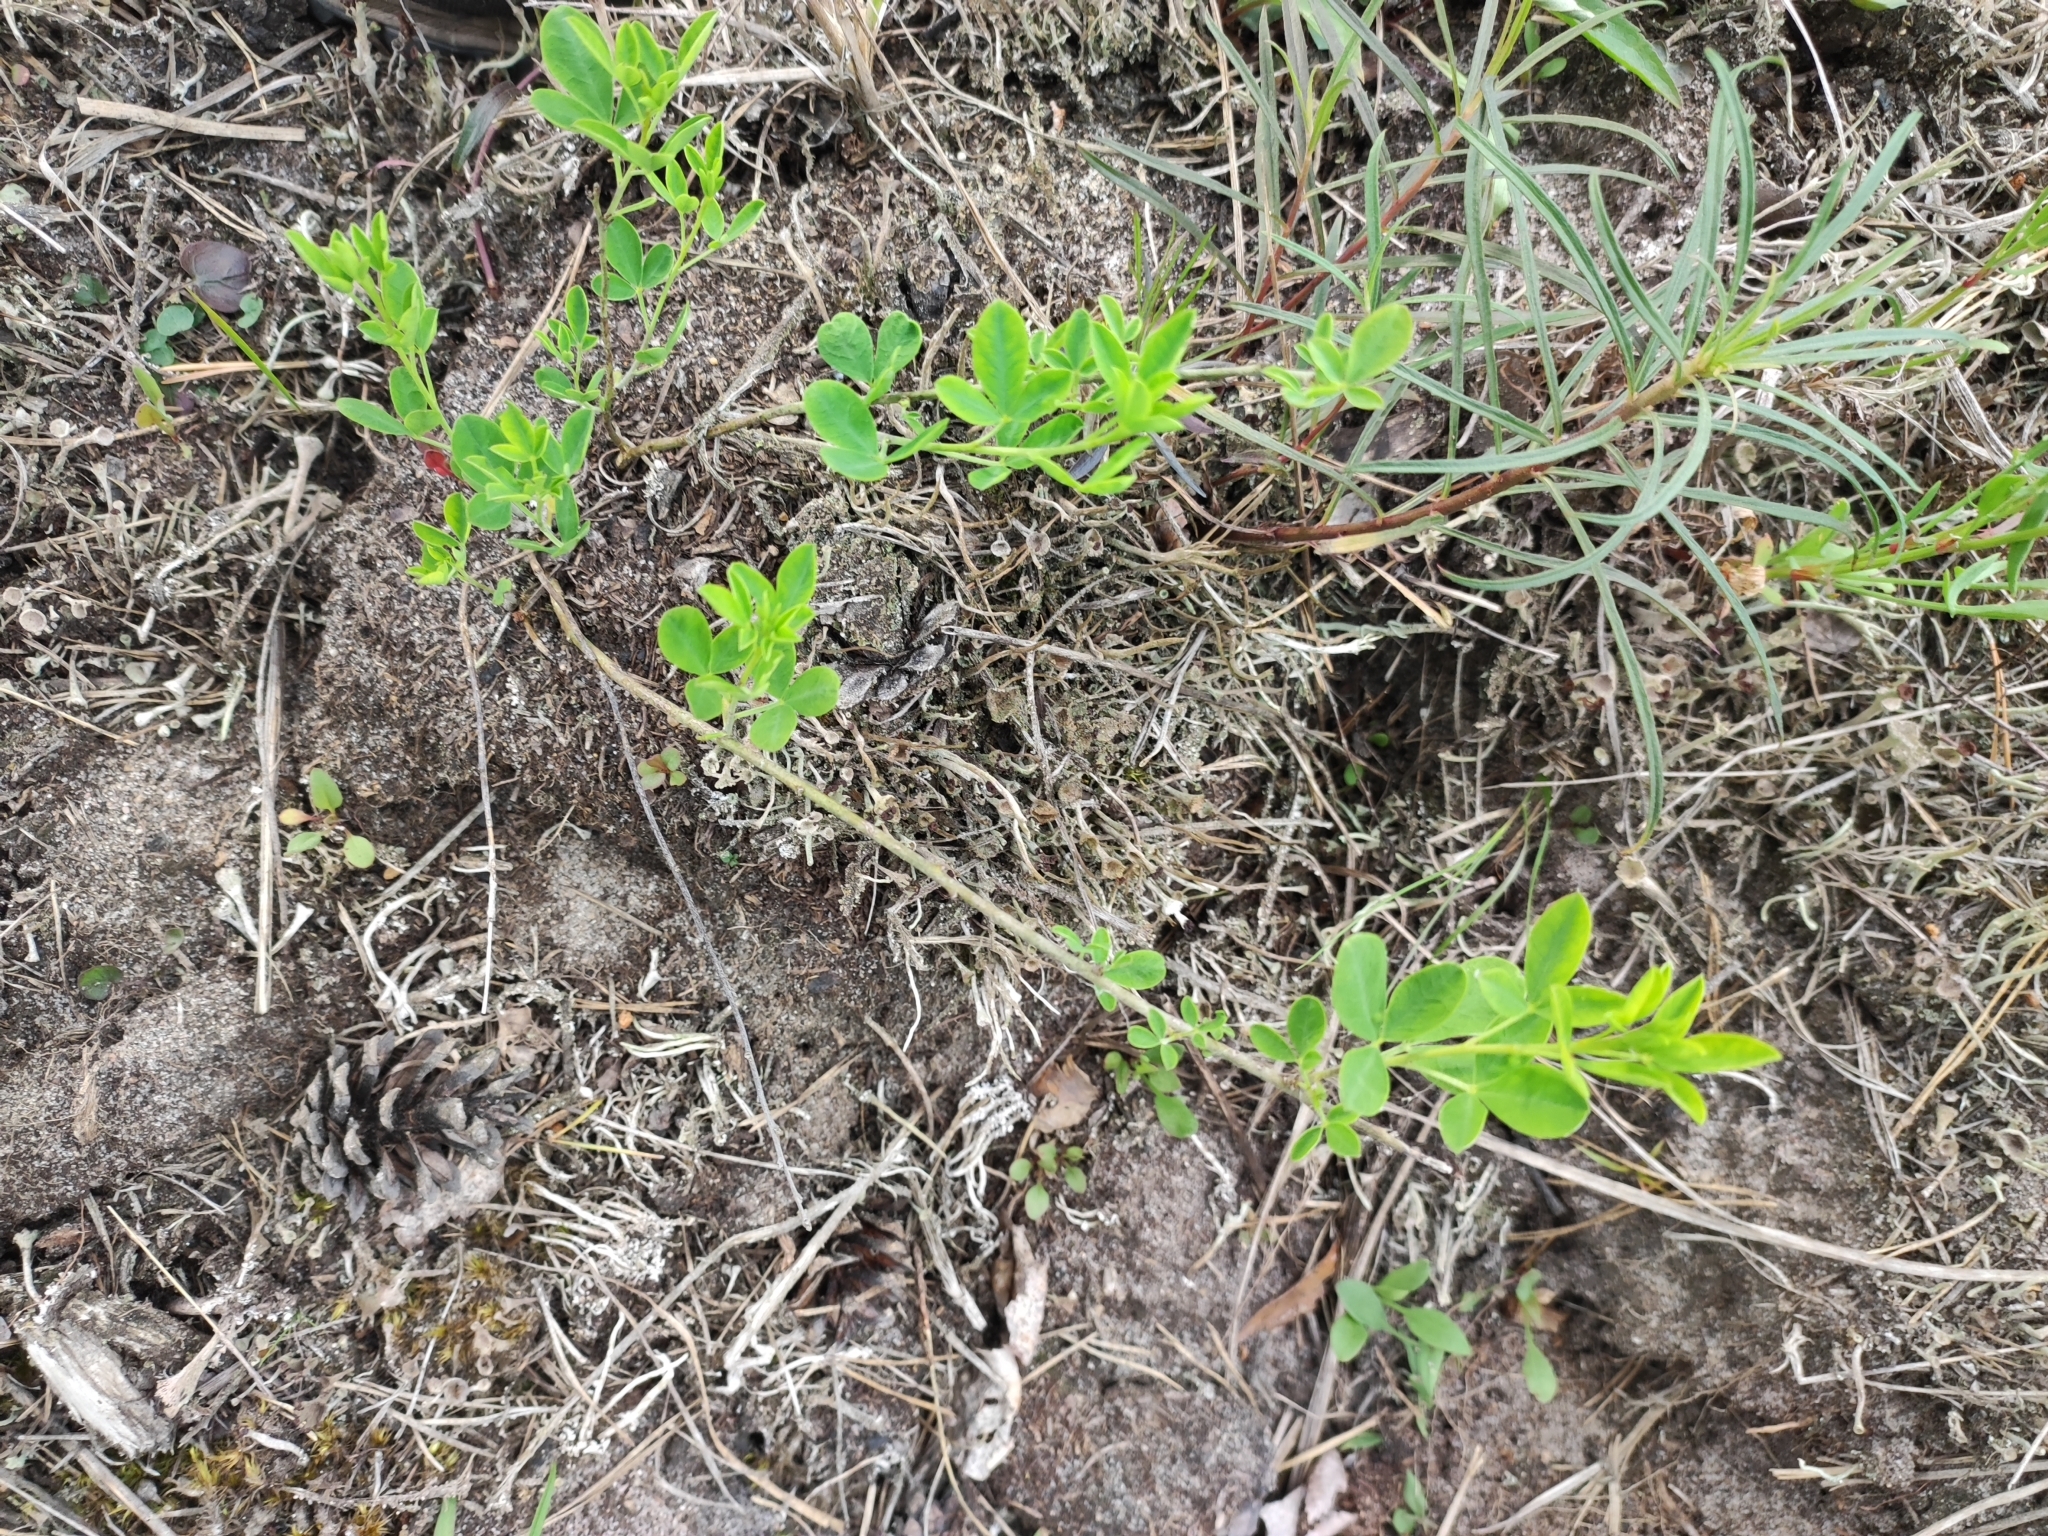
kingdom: Plantae
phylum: Tracheophyta
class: Magnoliopsida
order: Fabales
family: Fabaceae
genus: Chamaecytisus
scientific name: Chamaecytisus ruthenicus
